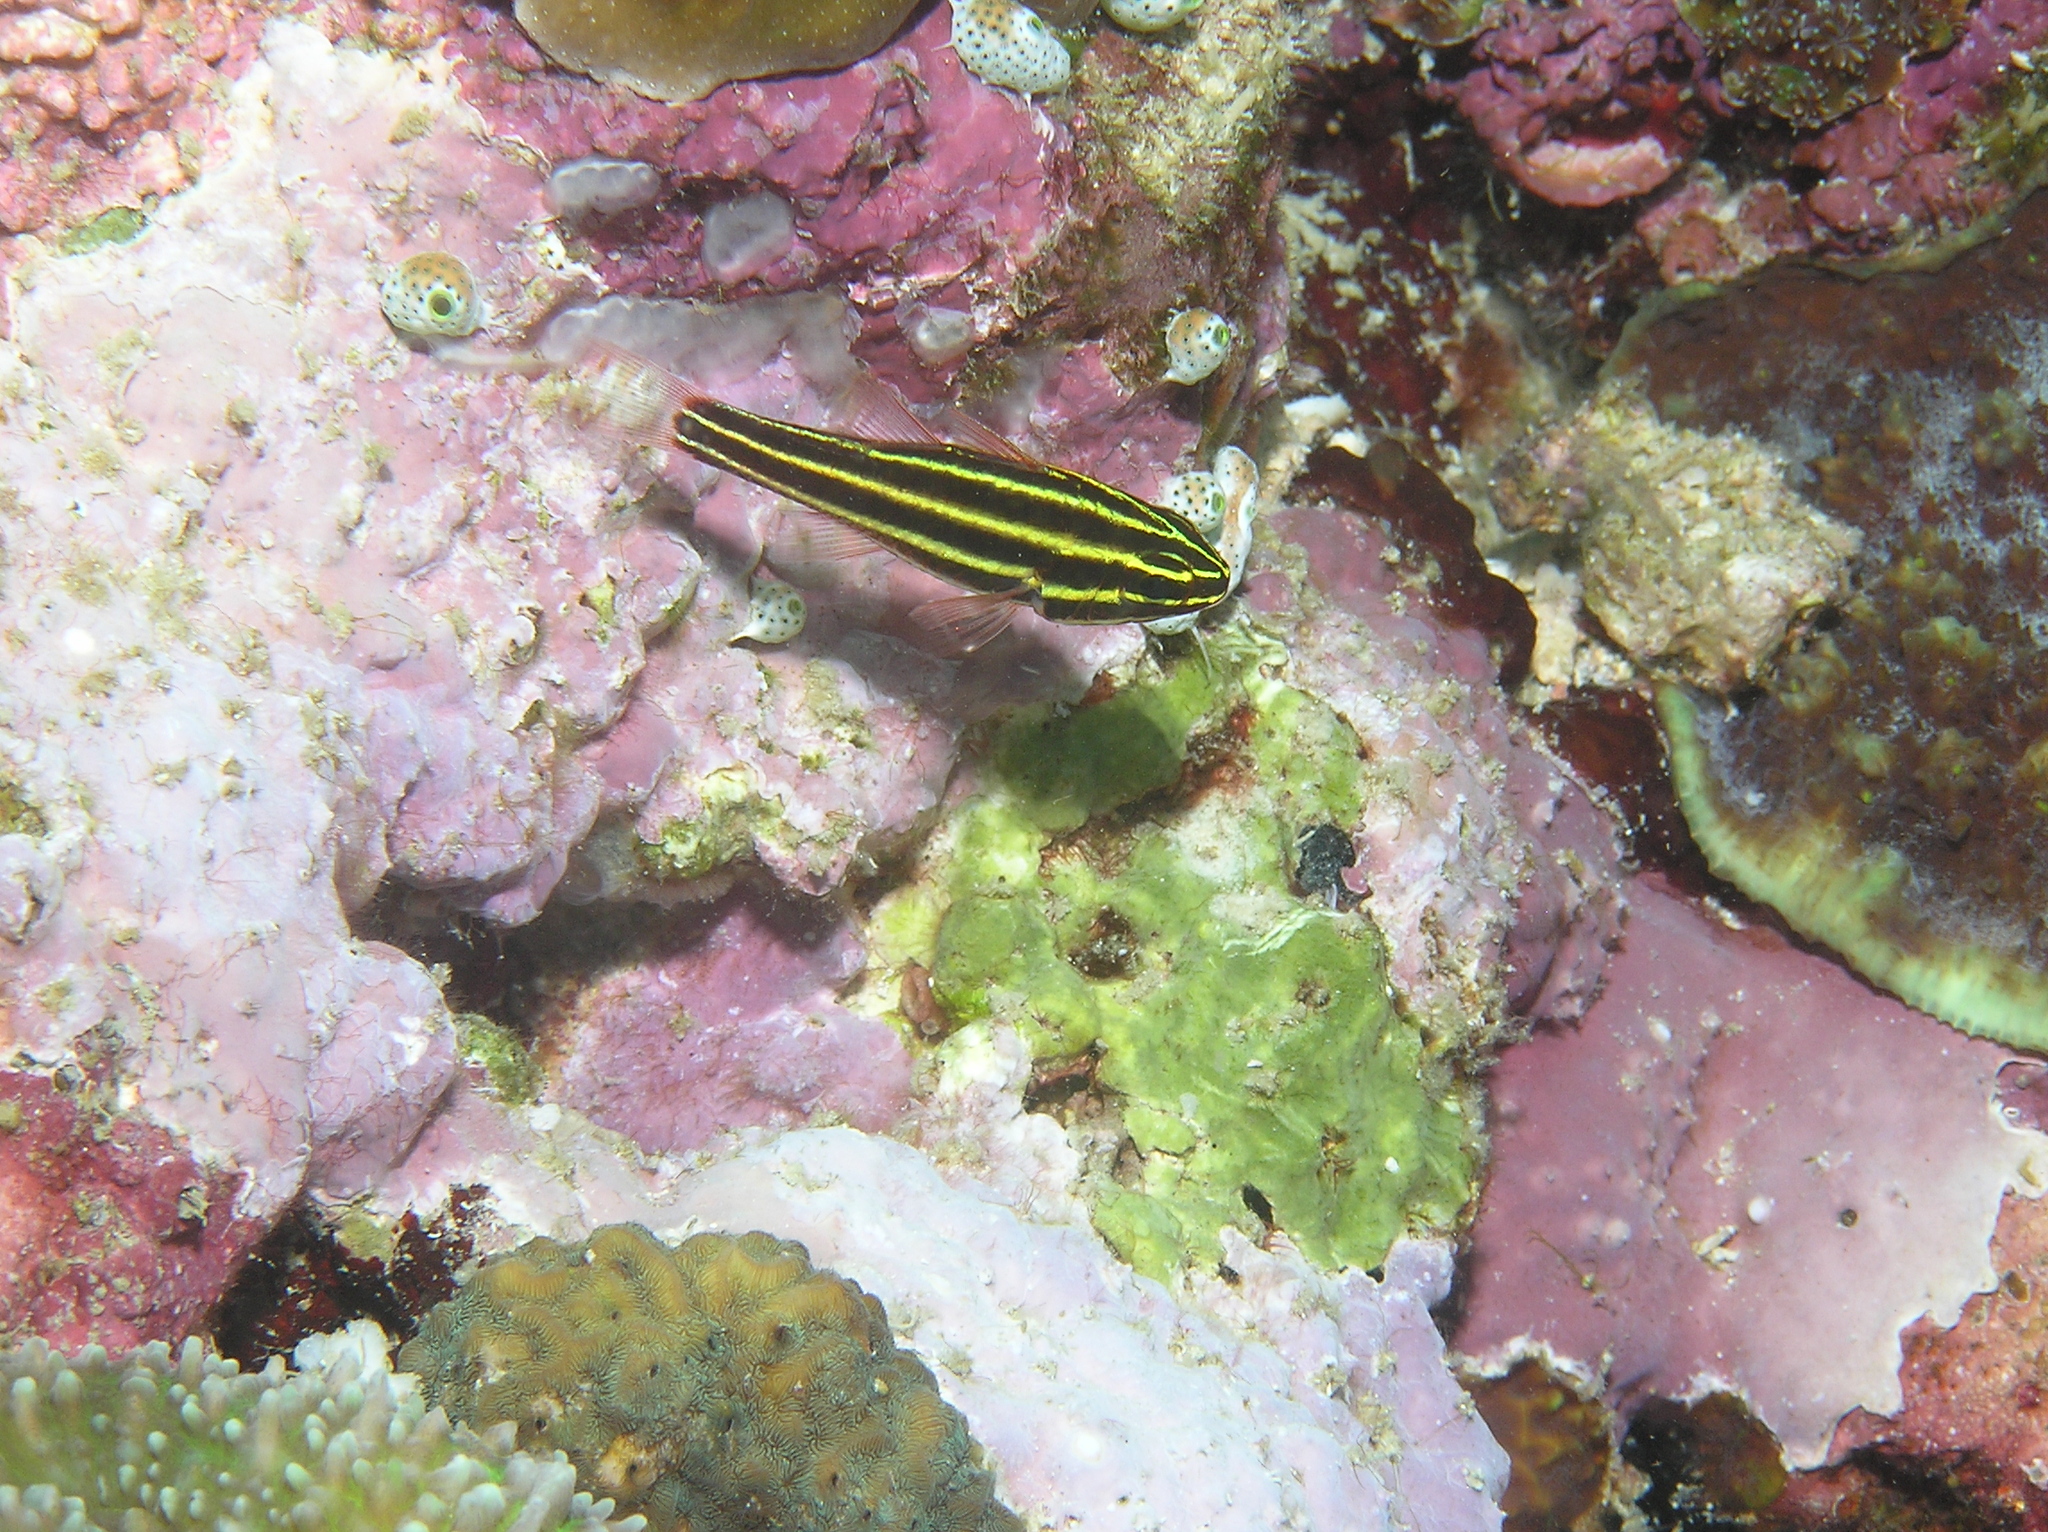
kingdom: Animalia
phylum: Chordata
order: Perciformes
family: Apogonidae
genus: Ostorhinchus
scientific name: Ostorhinchus nigrofasciatus
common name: Blackstripe cardinalfish
